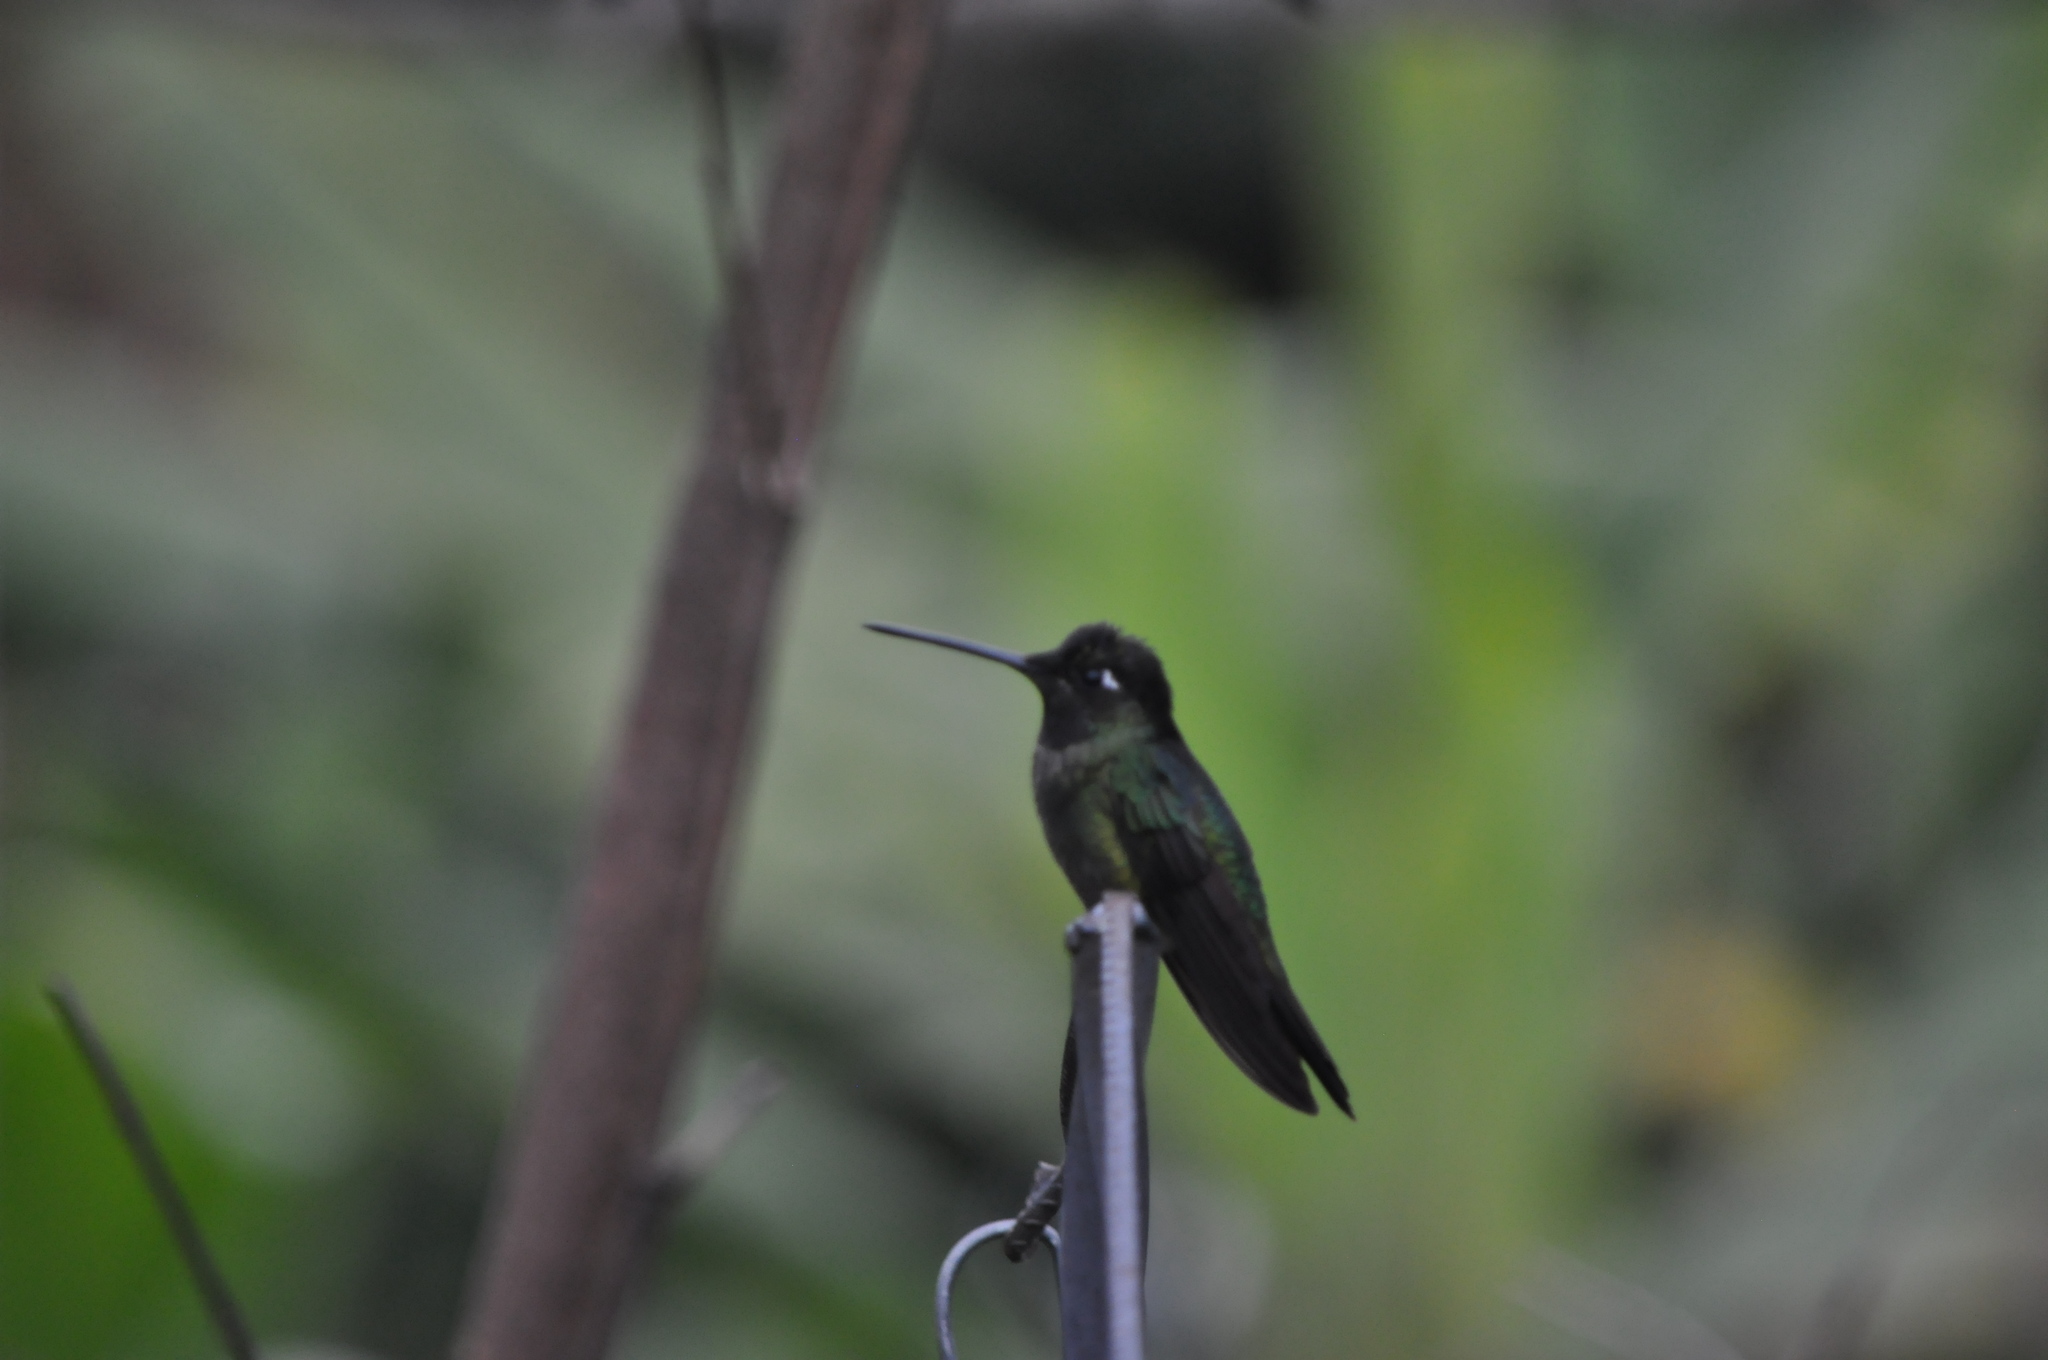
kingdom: Animalia
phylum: Chordata
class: Aves
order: Apodiformes
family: Trochilidae
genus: Eugenes
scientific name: Eugenes spectabilis
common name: Talamanca hummingbird
